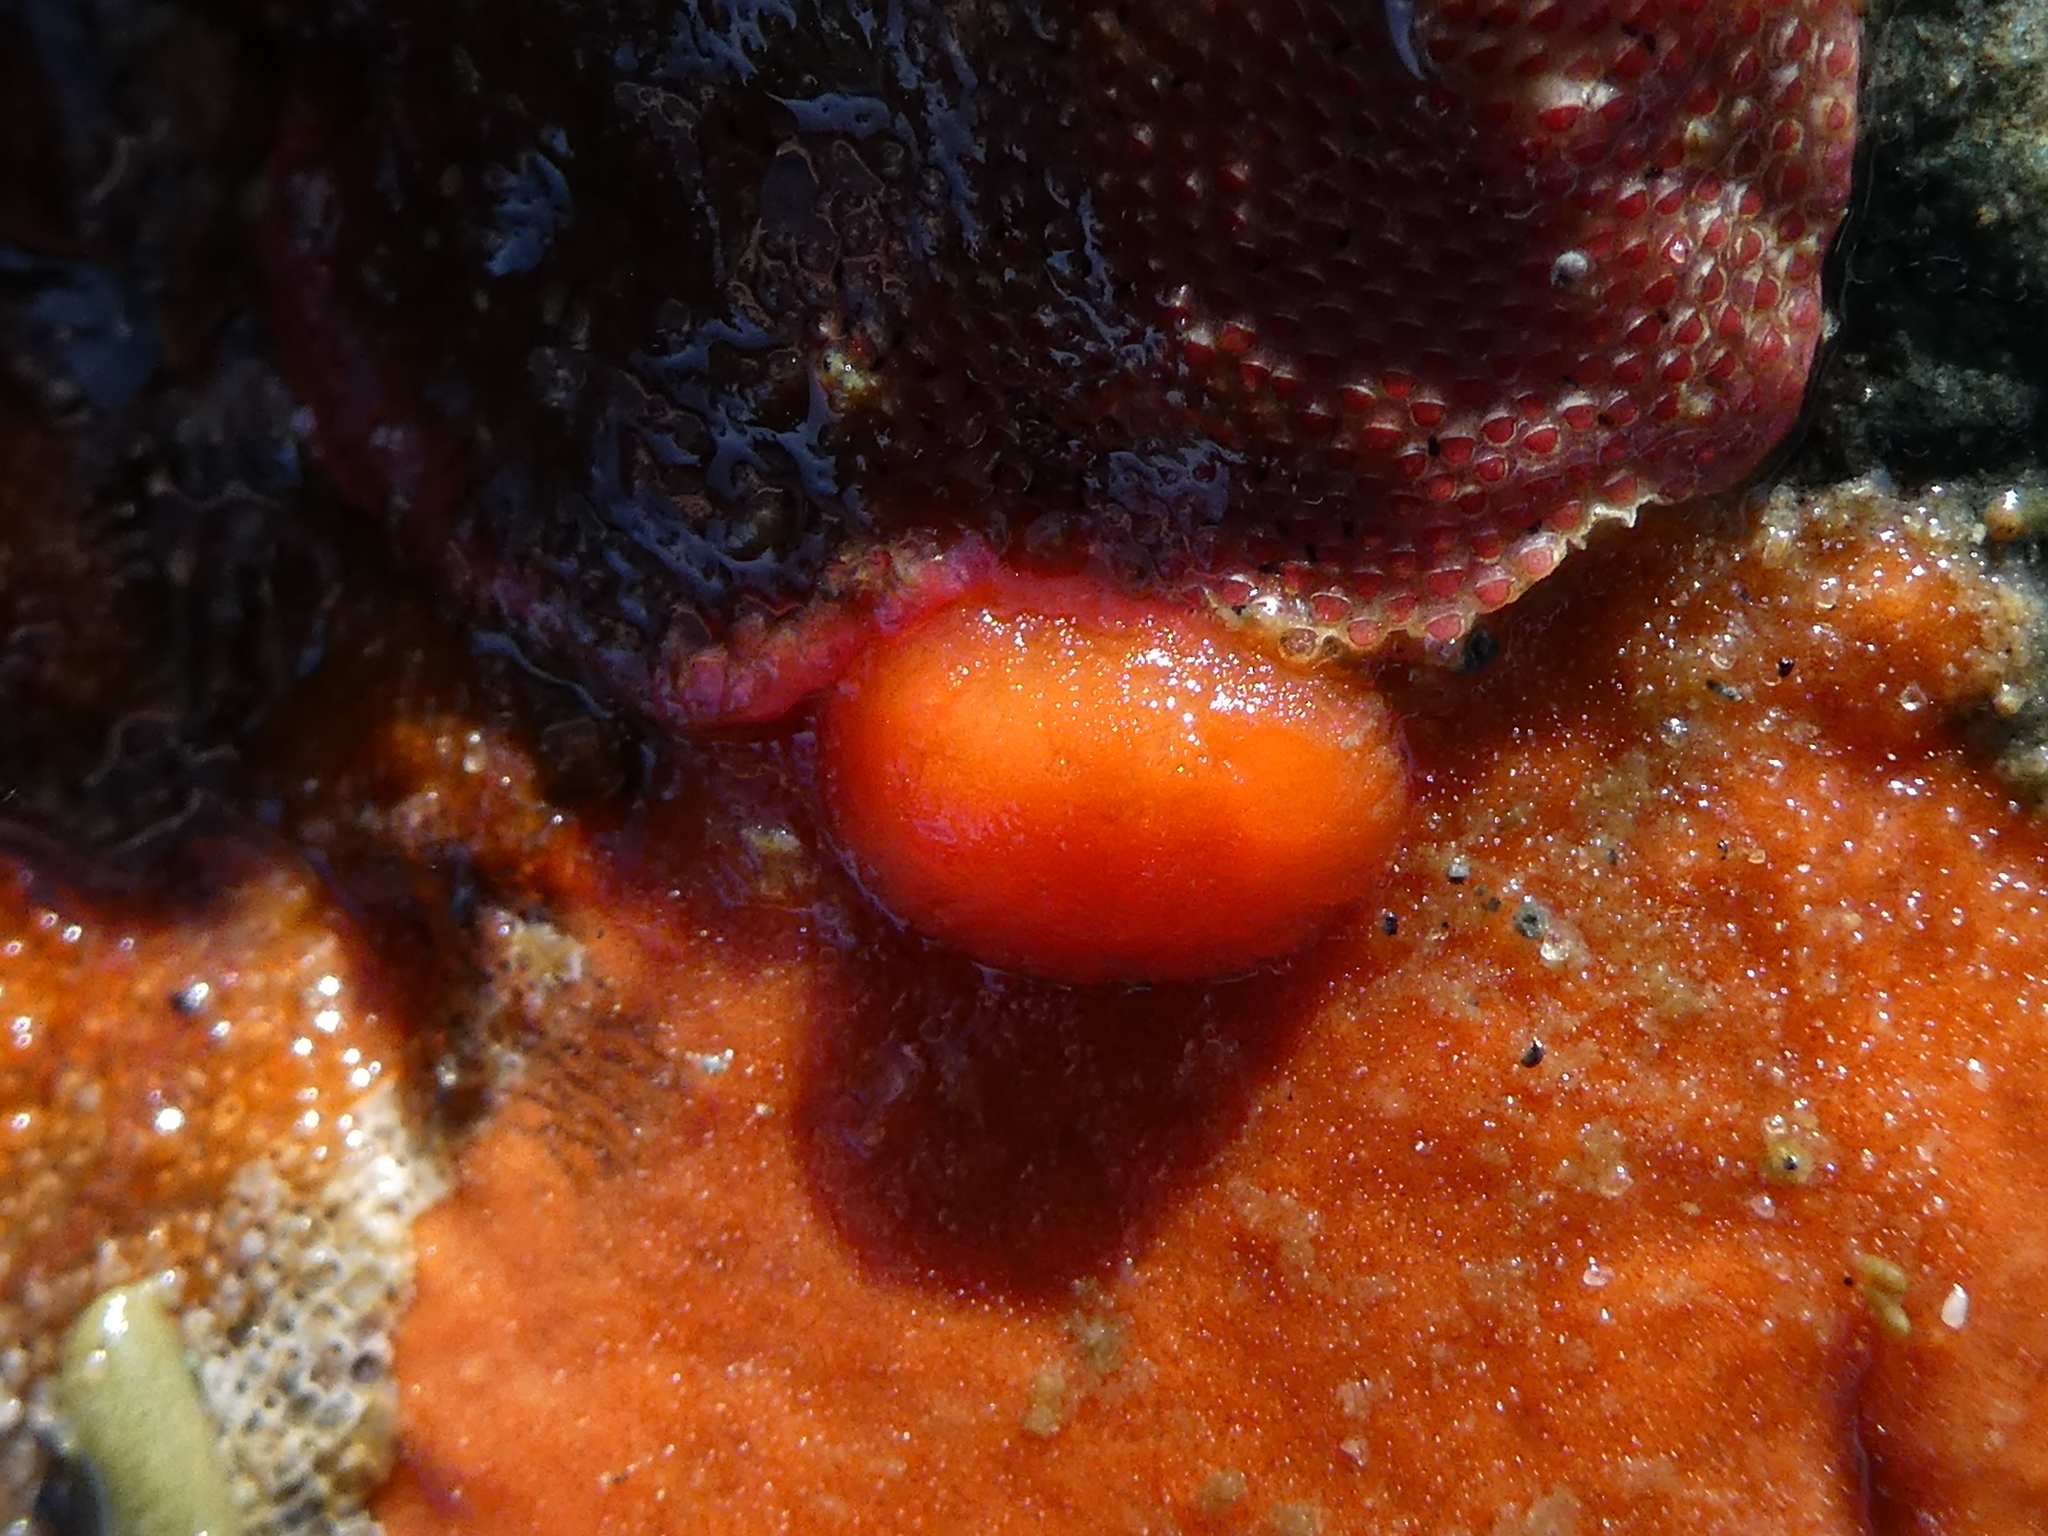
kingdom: Animalia
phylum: Mollusca
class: Gastropoda
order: Nudibranchia
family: Discodorididae
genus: Rostanga
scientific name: Rostanga pulchra
